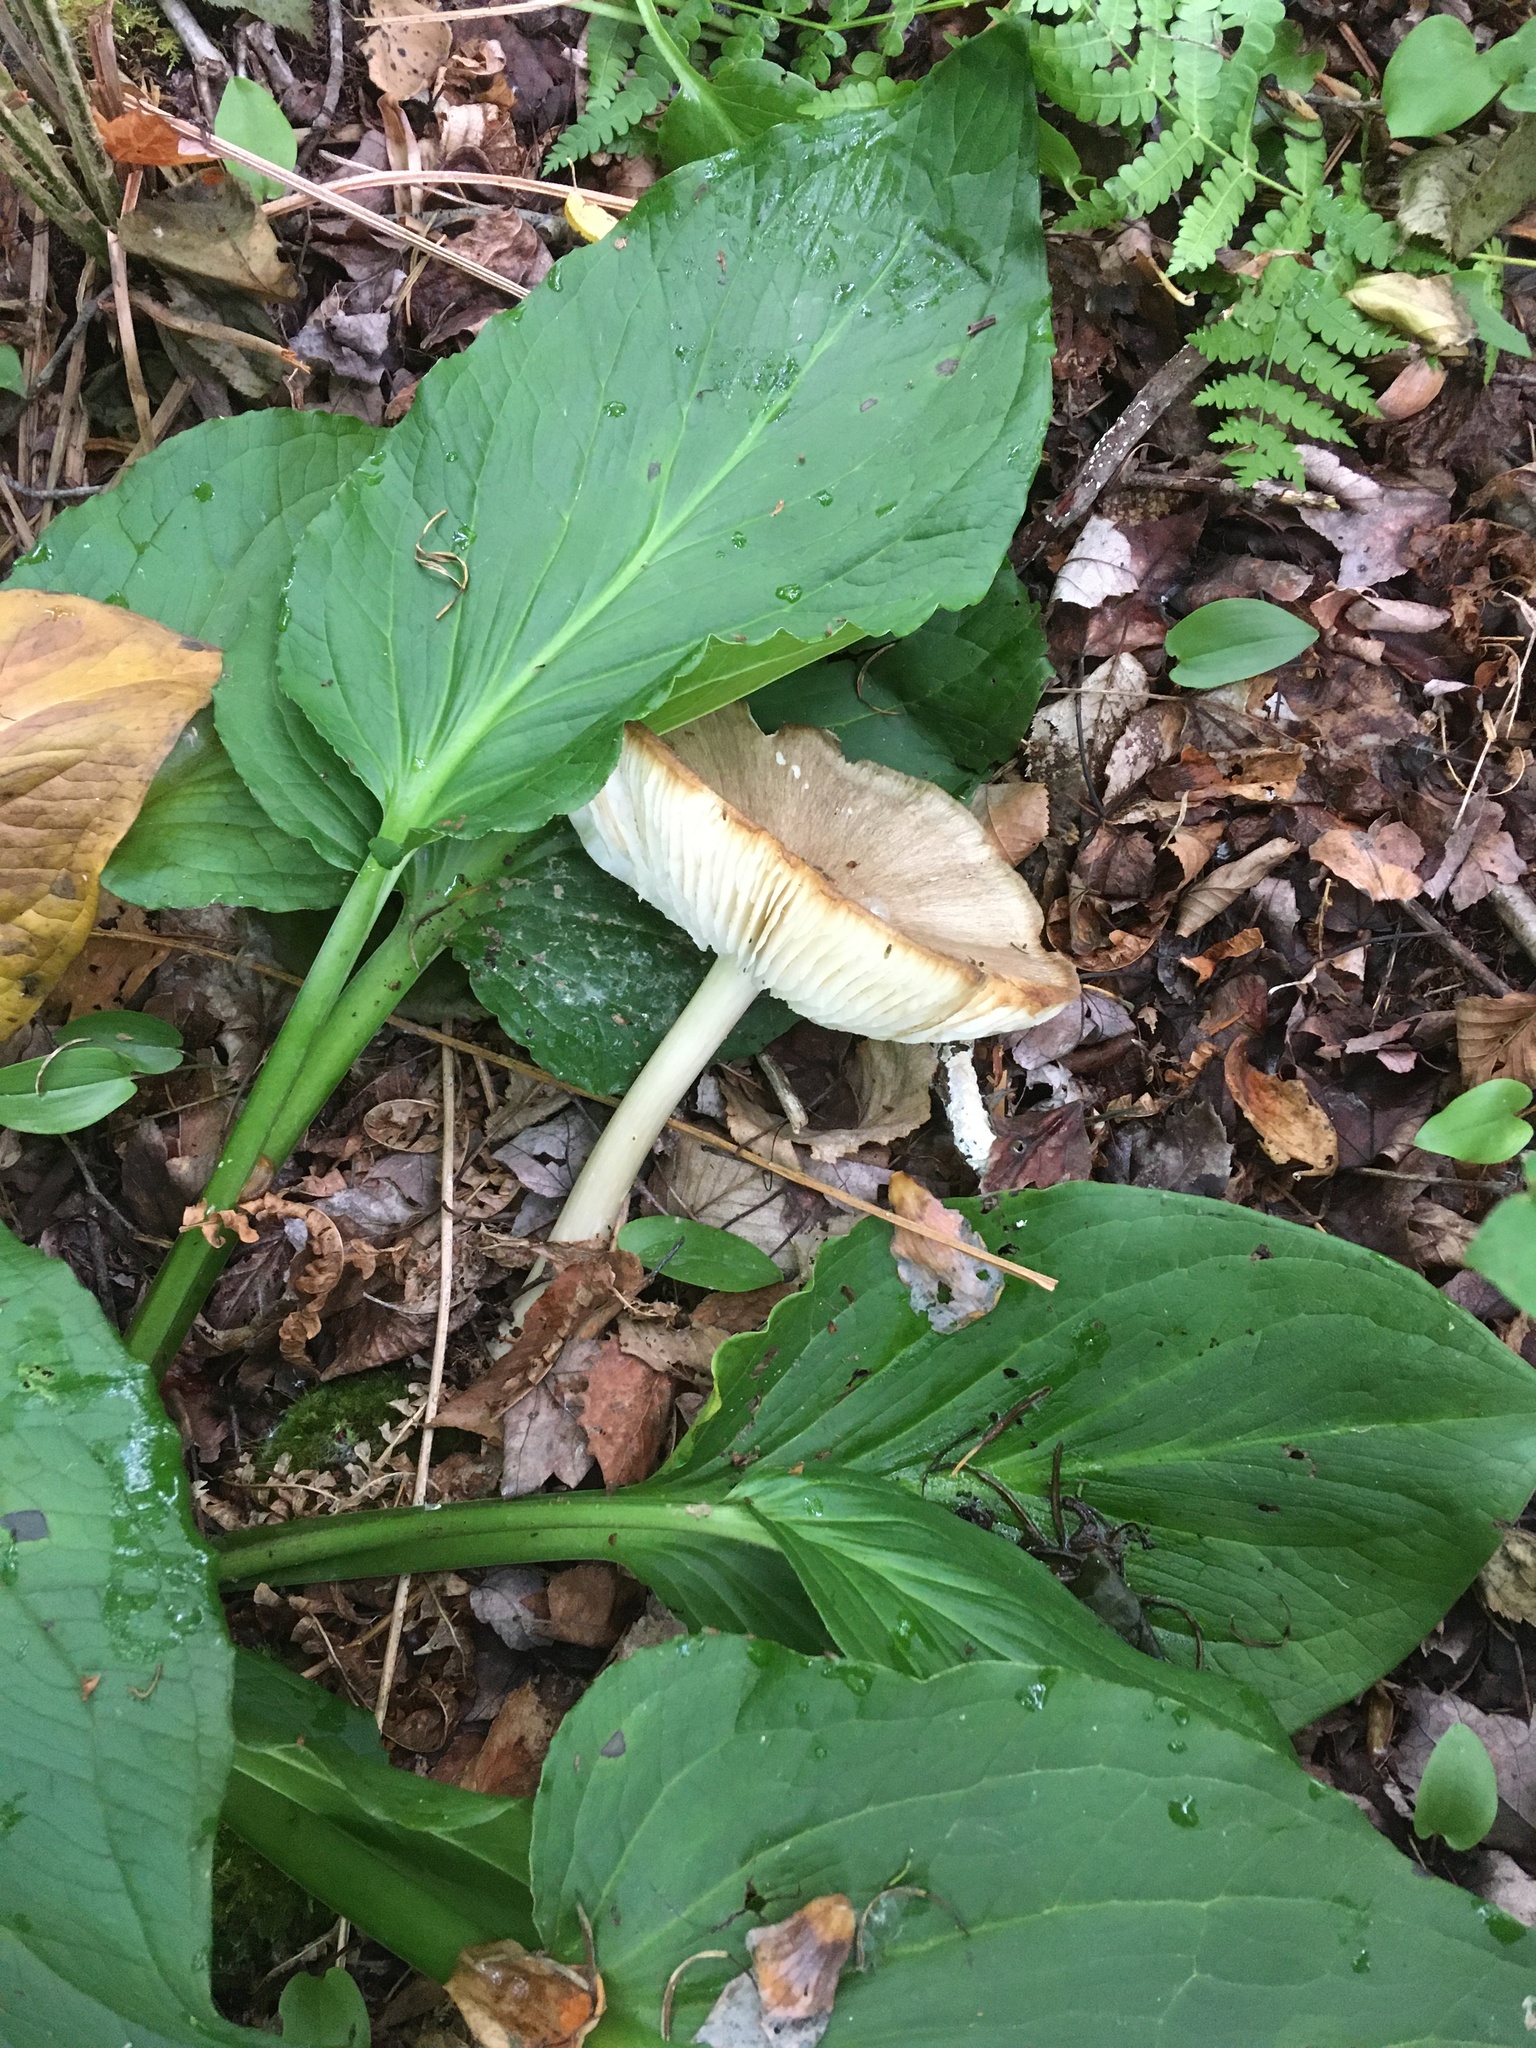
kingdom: Fungi
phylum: Basidiomycota
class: Agaricomycetes
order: Agaricales
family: Tricholomataceae
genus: Megacollybia
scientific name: Megacollybia rodmanii
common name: Eastern american platterful mushroom
